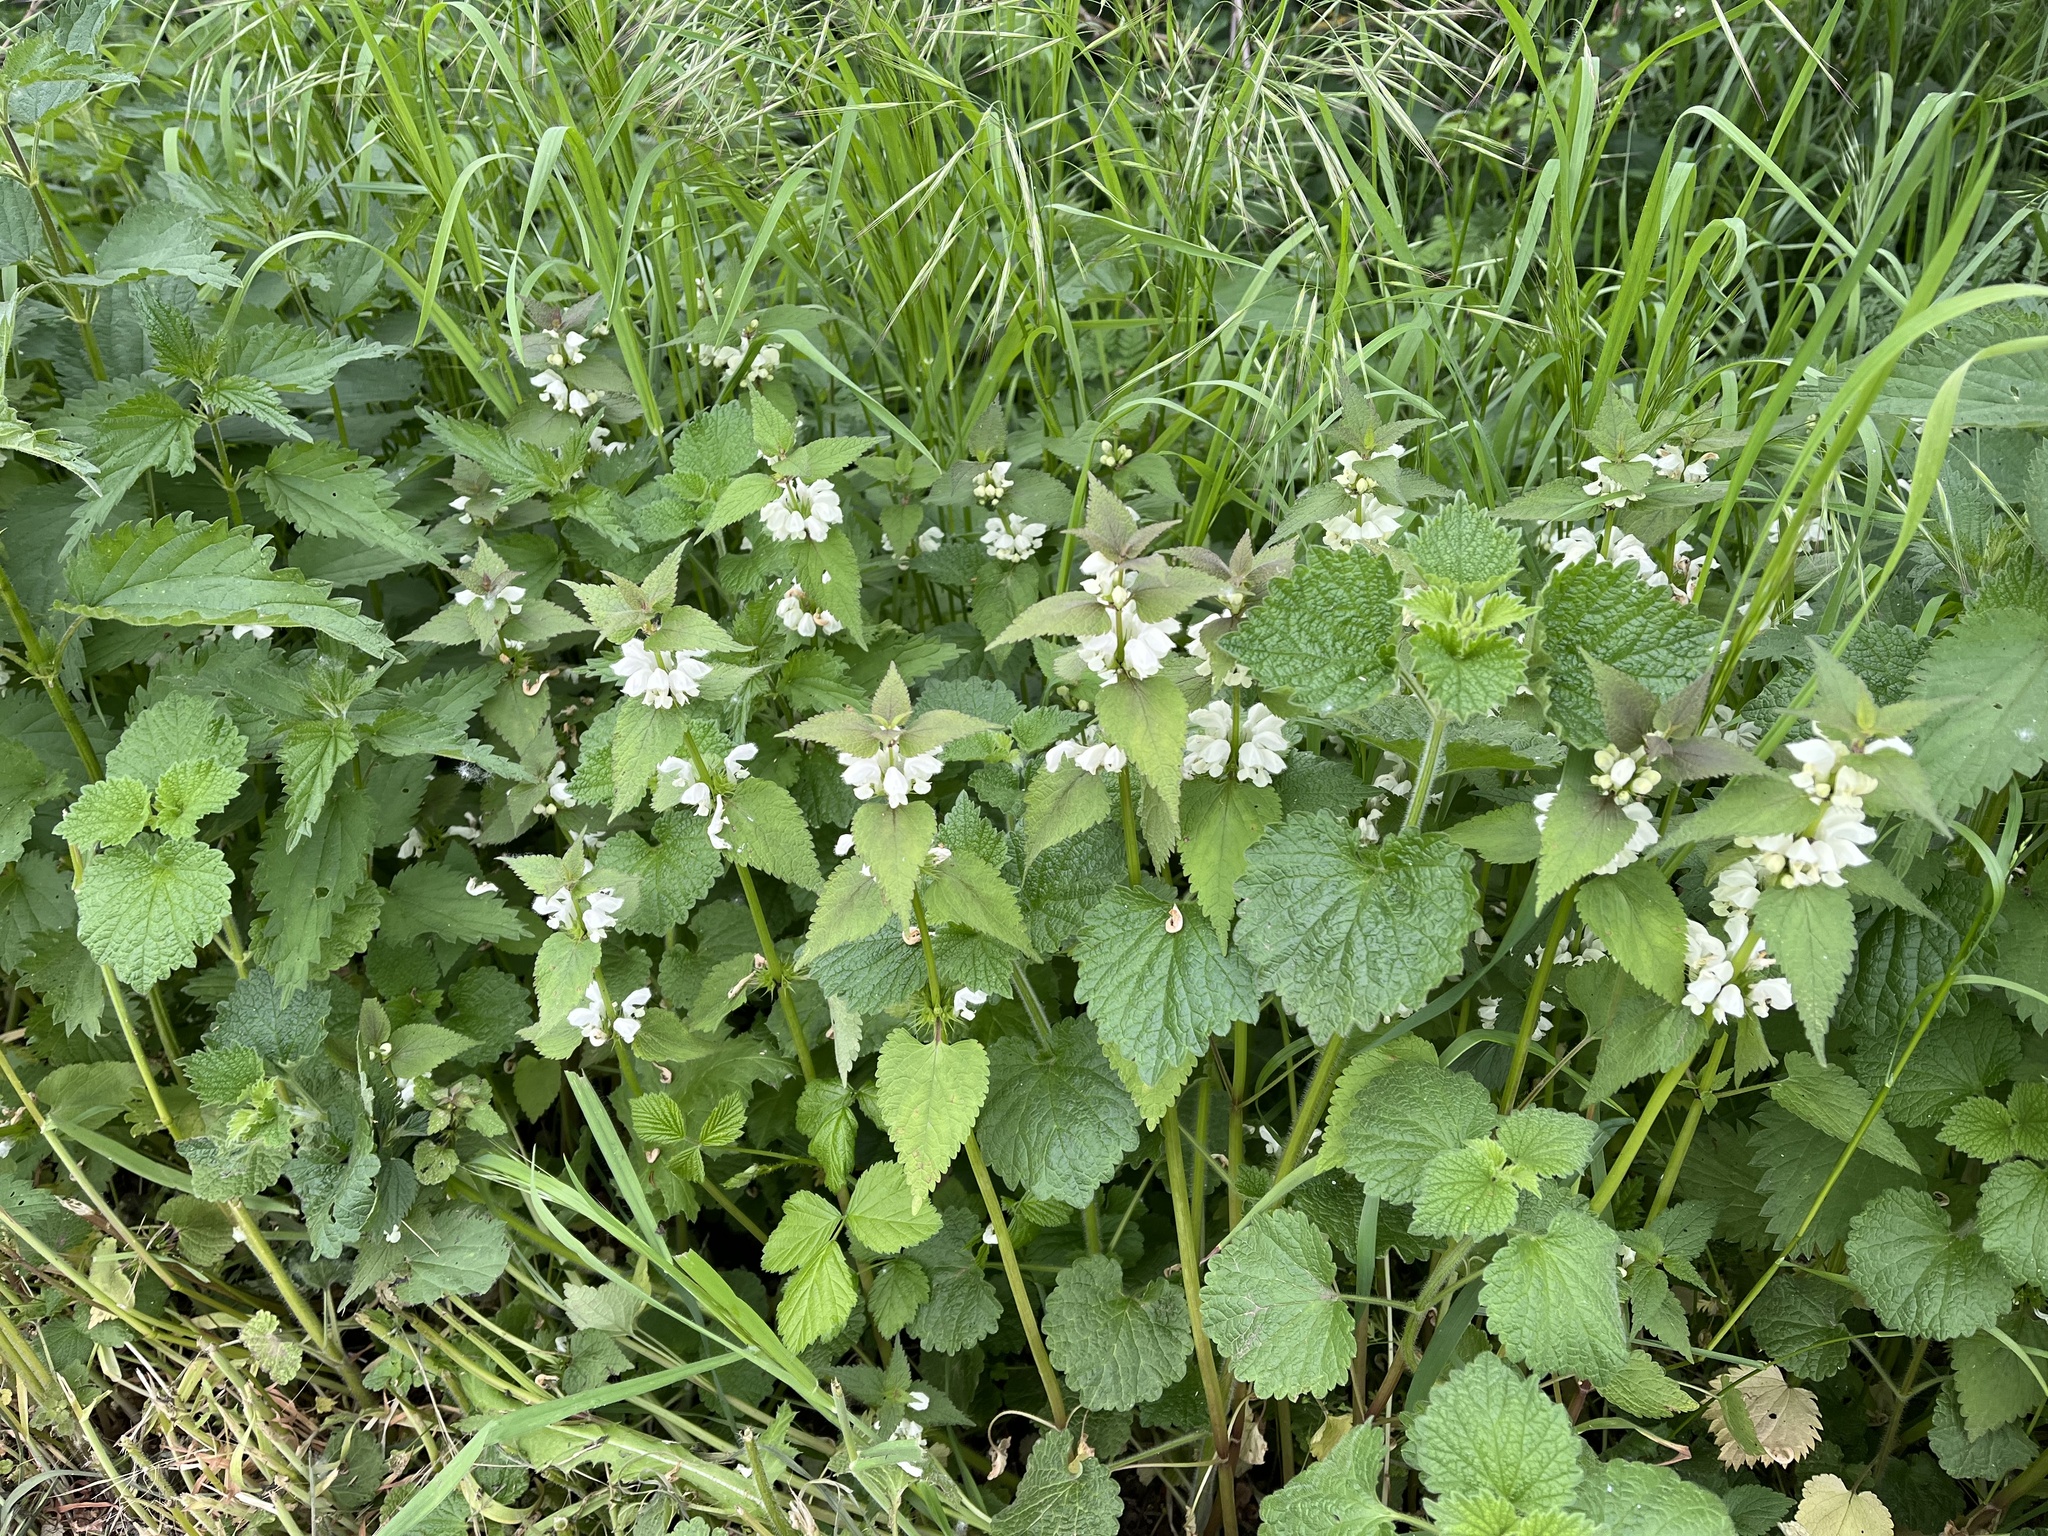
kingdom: Plantae
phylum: Tracheophyta
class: Magnoliopsida
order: Lamiales
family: Lamiaceae
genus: Lamium
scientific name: Lamium album
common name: White dead-nettle
